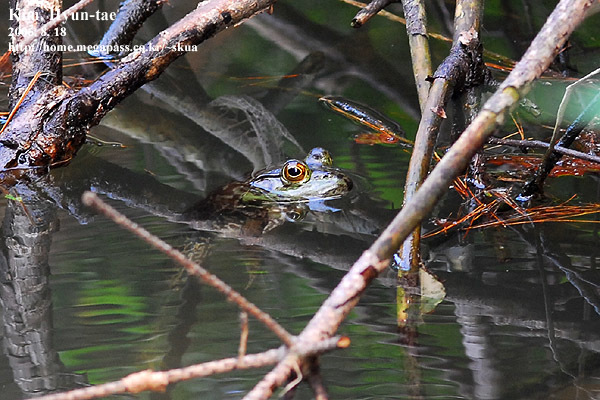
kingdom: Animalia
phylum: Chordata
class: Amphibia
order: Anura
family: Ranidae
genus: Lithobates
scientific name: Lithobates catesbeianus
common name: American bullfrog
